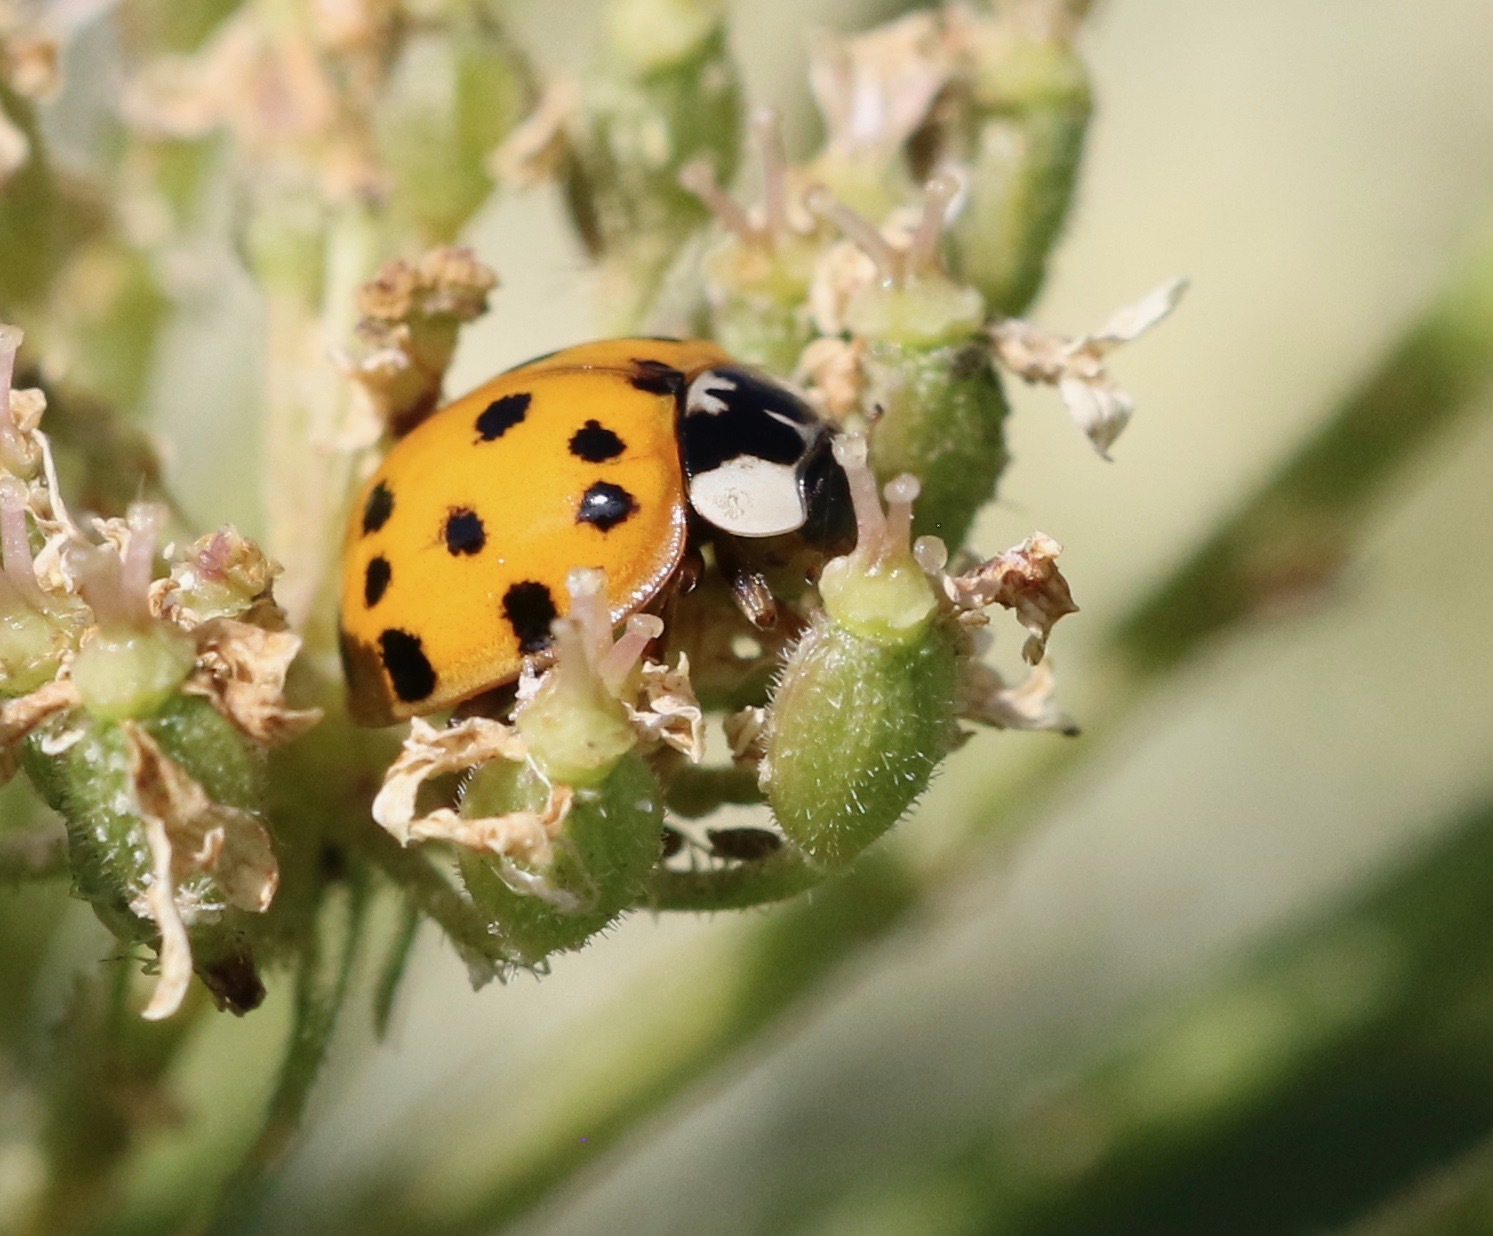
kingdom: Animalia
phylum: Arthropoda
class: Insecta
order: Coleoptera
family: Coccinellidae
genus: Harmonia
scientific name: Harmonia axyridis
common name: Harlequin ladybird
